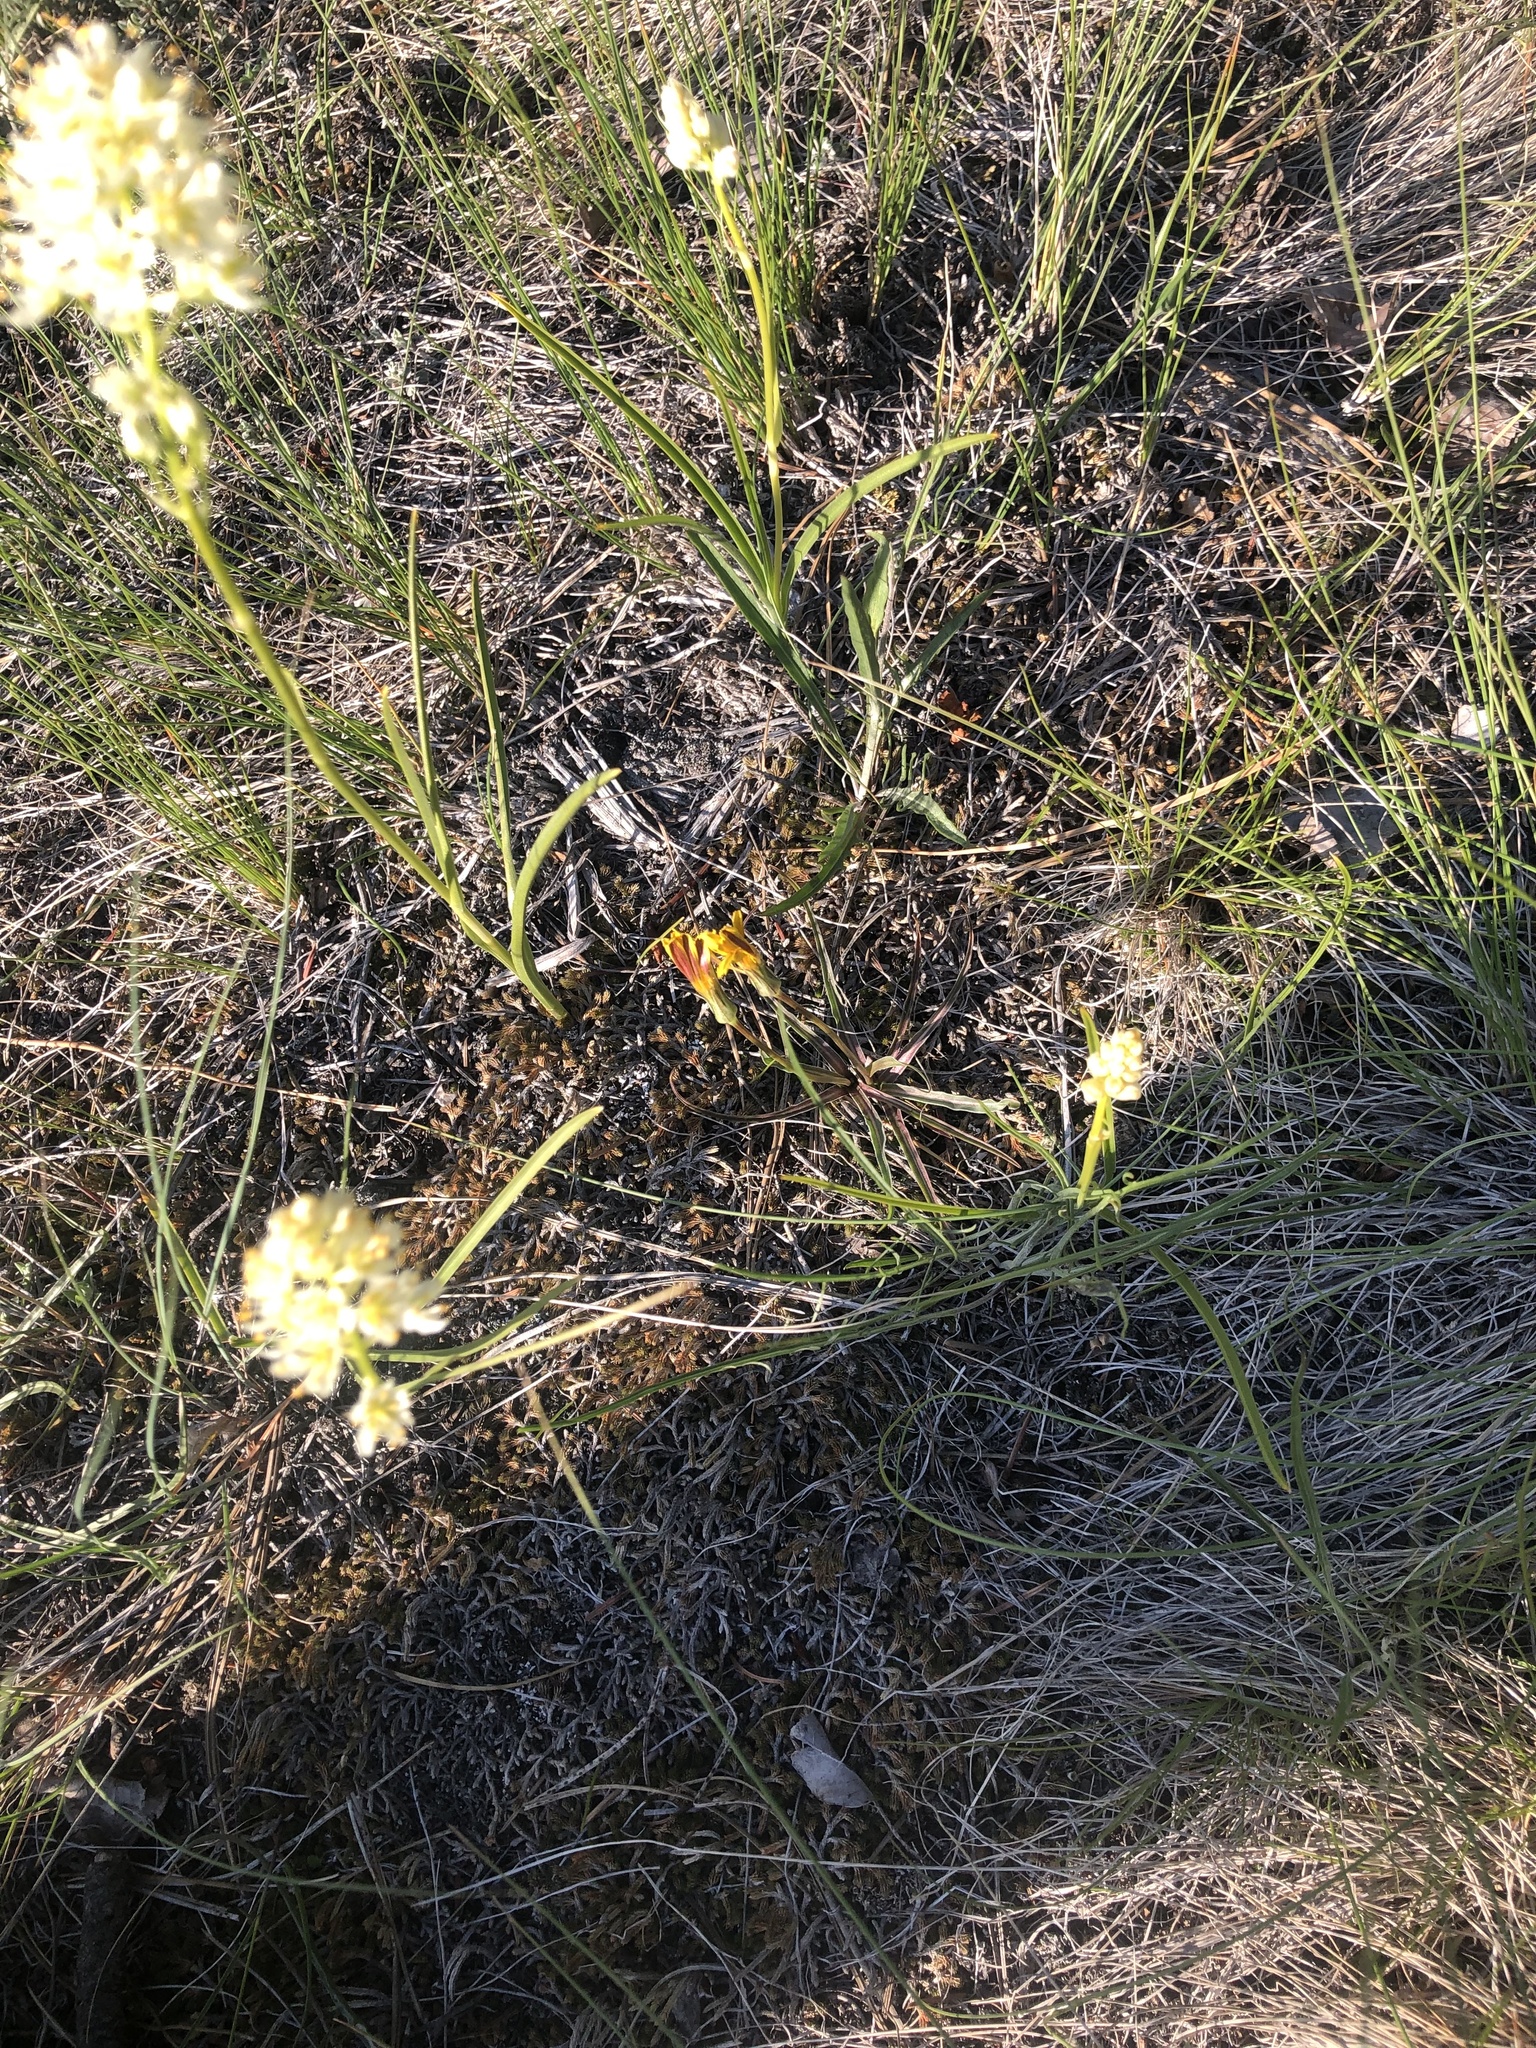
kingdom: Plantae
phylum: Tracheophyta
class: Liliopsida
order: Liliales
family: Melanthiaceae
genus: Toxicoscordion
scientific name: Toxicoscordion venenosum
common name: Meadow death camas
